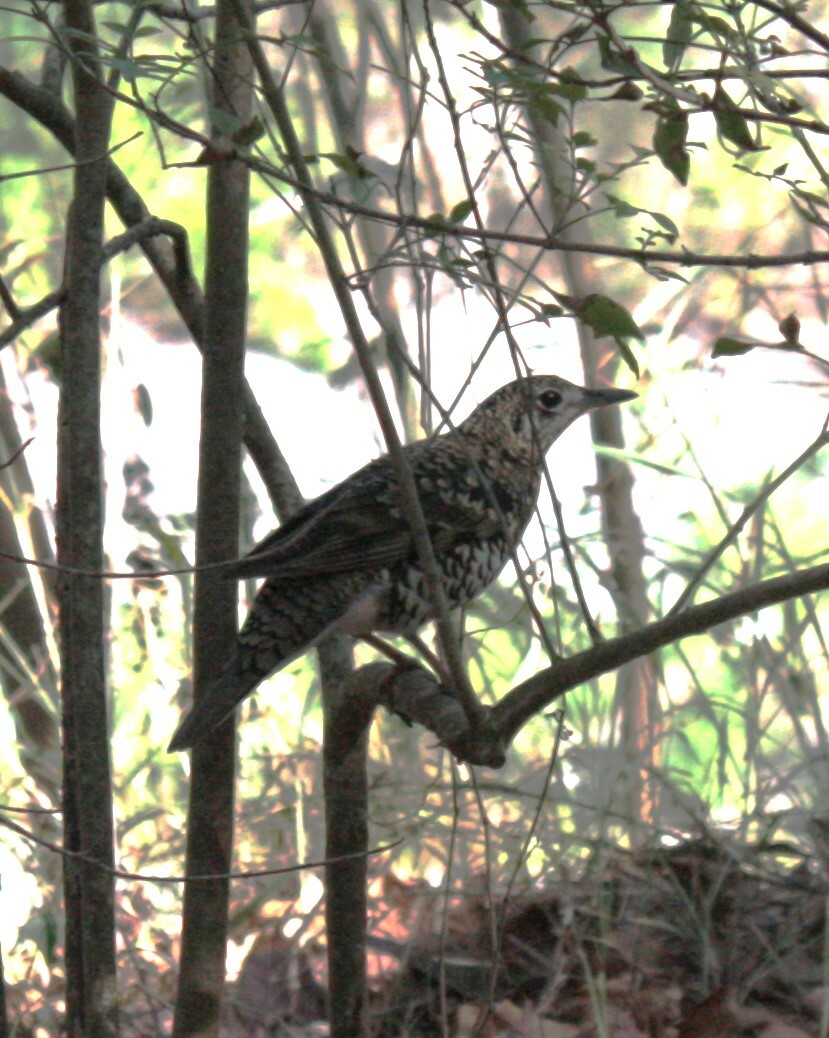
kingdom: Animalia
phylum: Chordata
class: Aves
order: Passeriformes
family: Turdidae
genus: Zoothera
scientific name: Zoothera aurea
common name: White's thrush
